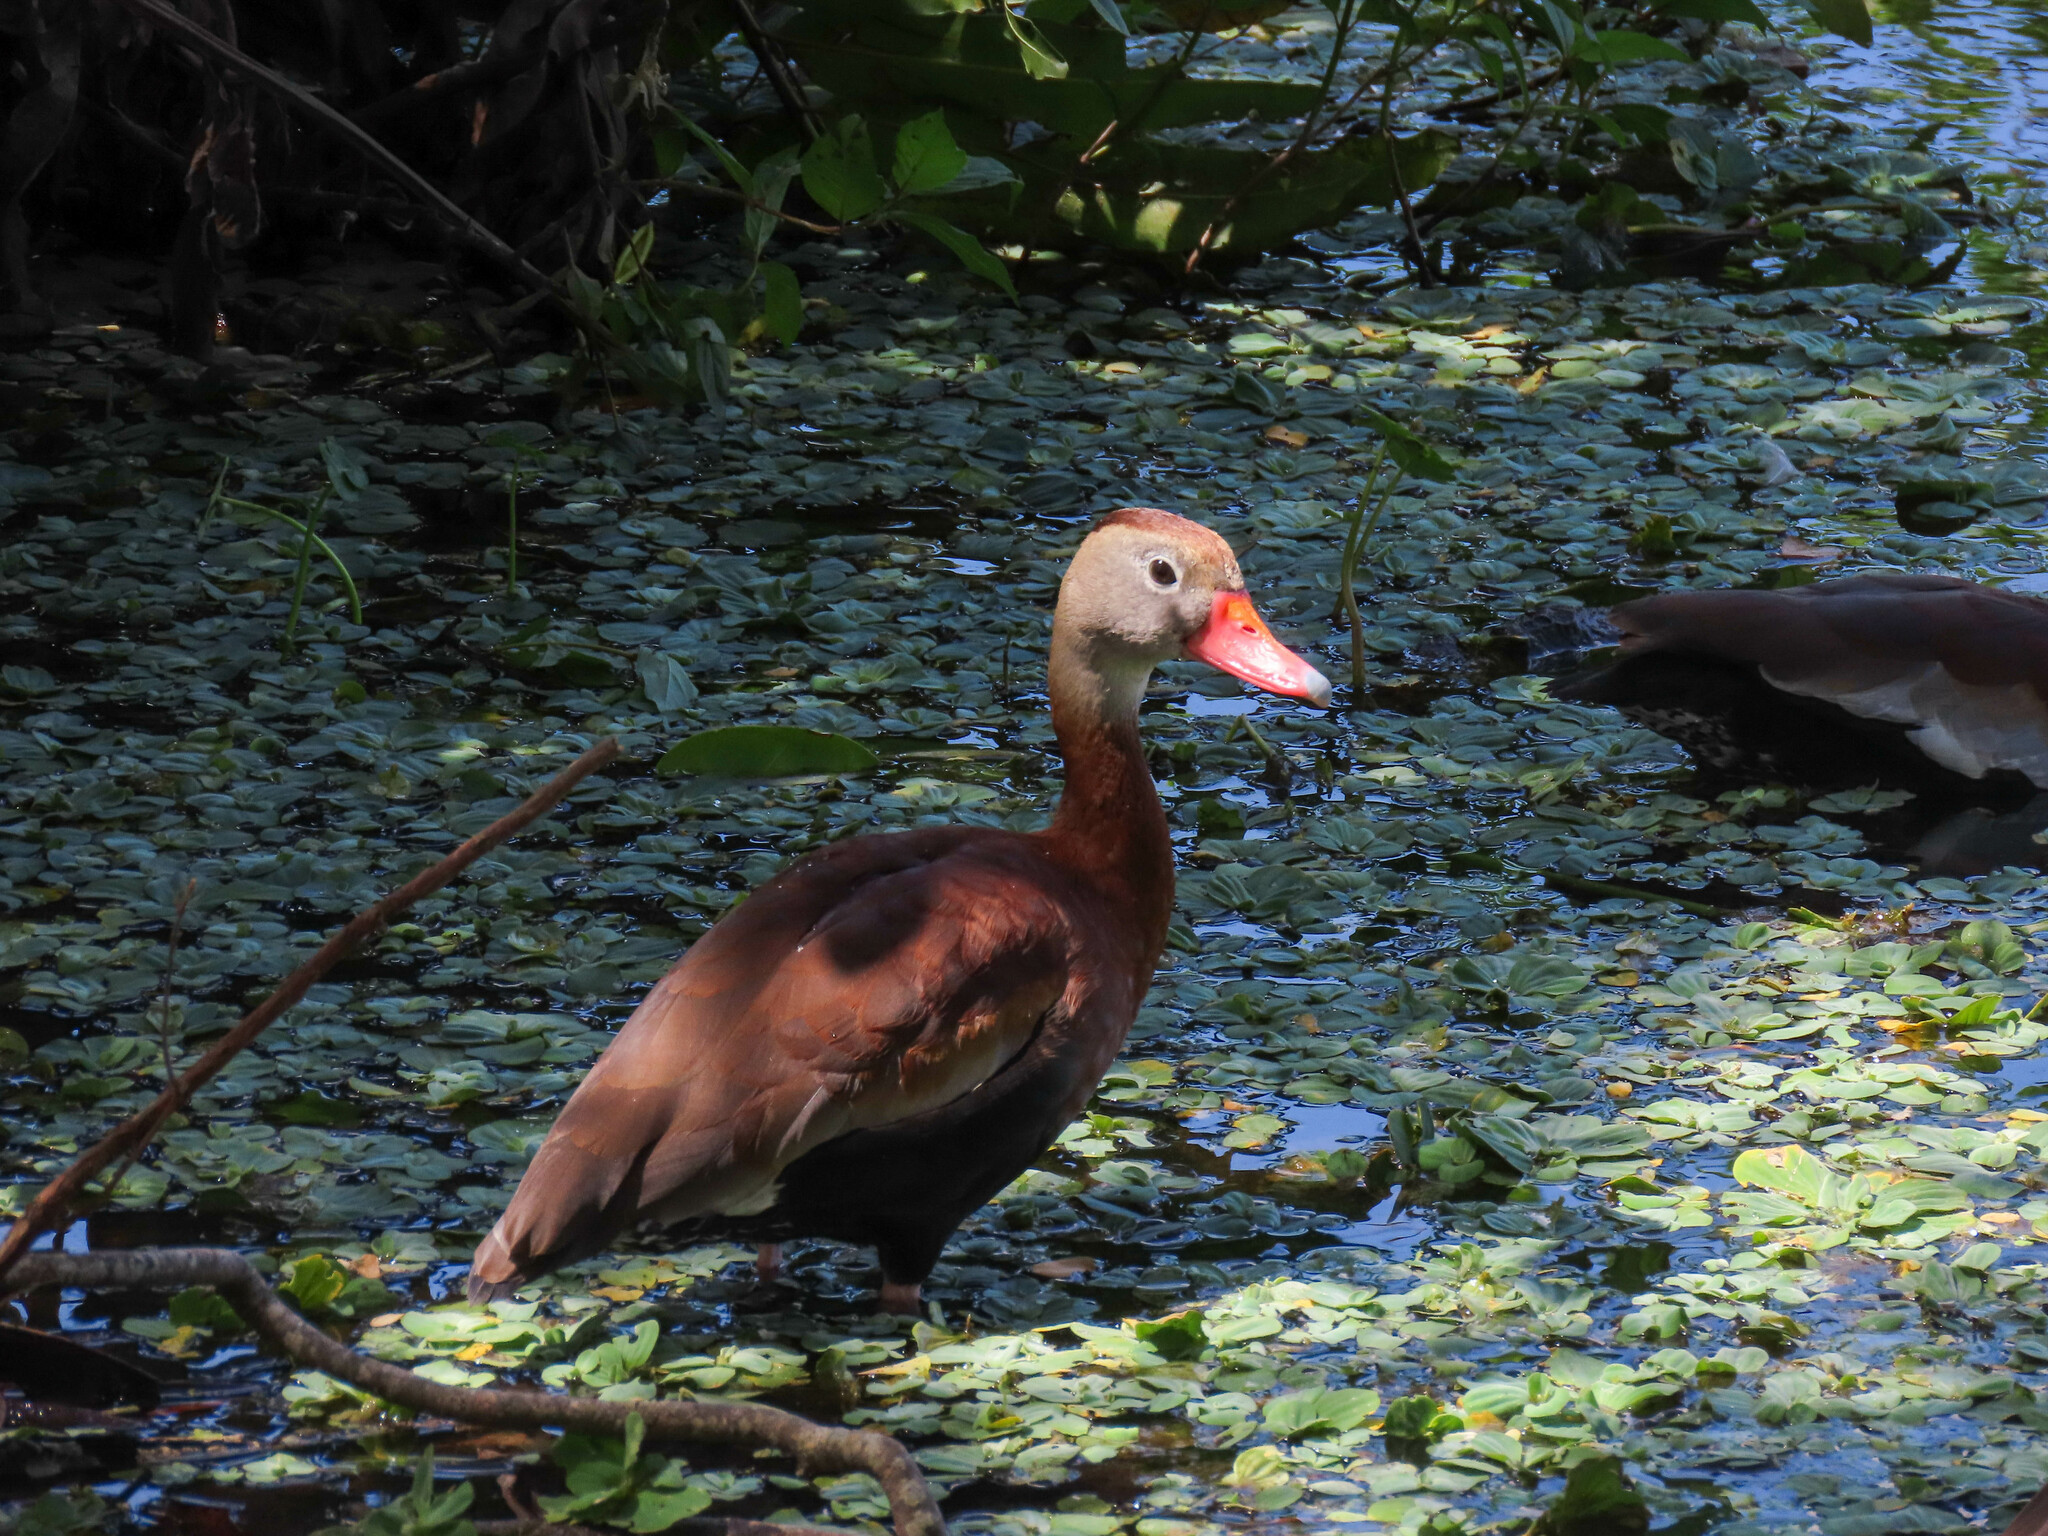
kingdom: Animalia
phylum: Chordata
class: Aves
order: Anseriformes
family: Anatidae
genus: Dendrocygna
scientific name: Dendrocygna autumnalis
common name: Black-bellied whistling duck
